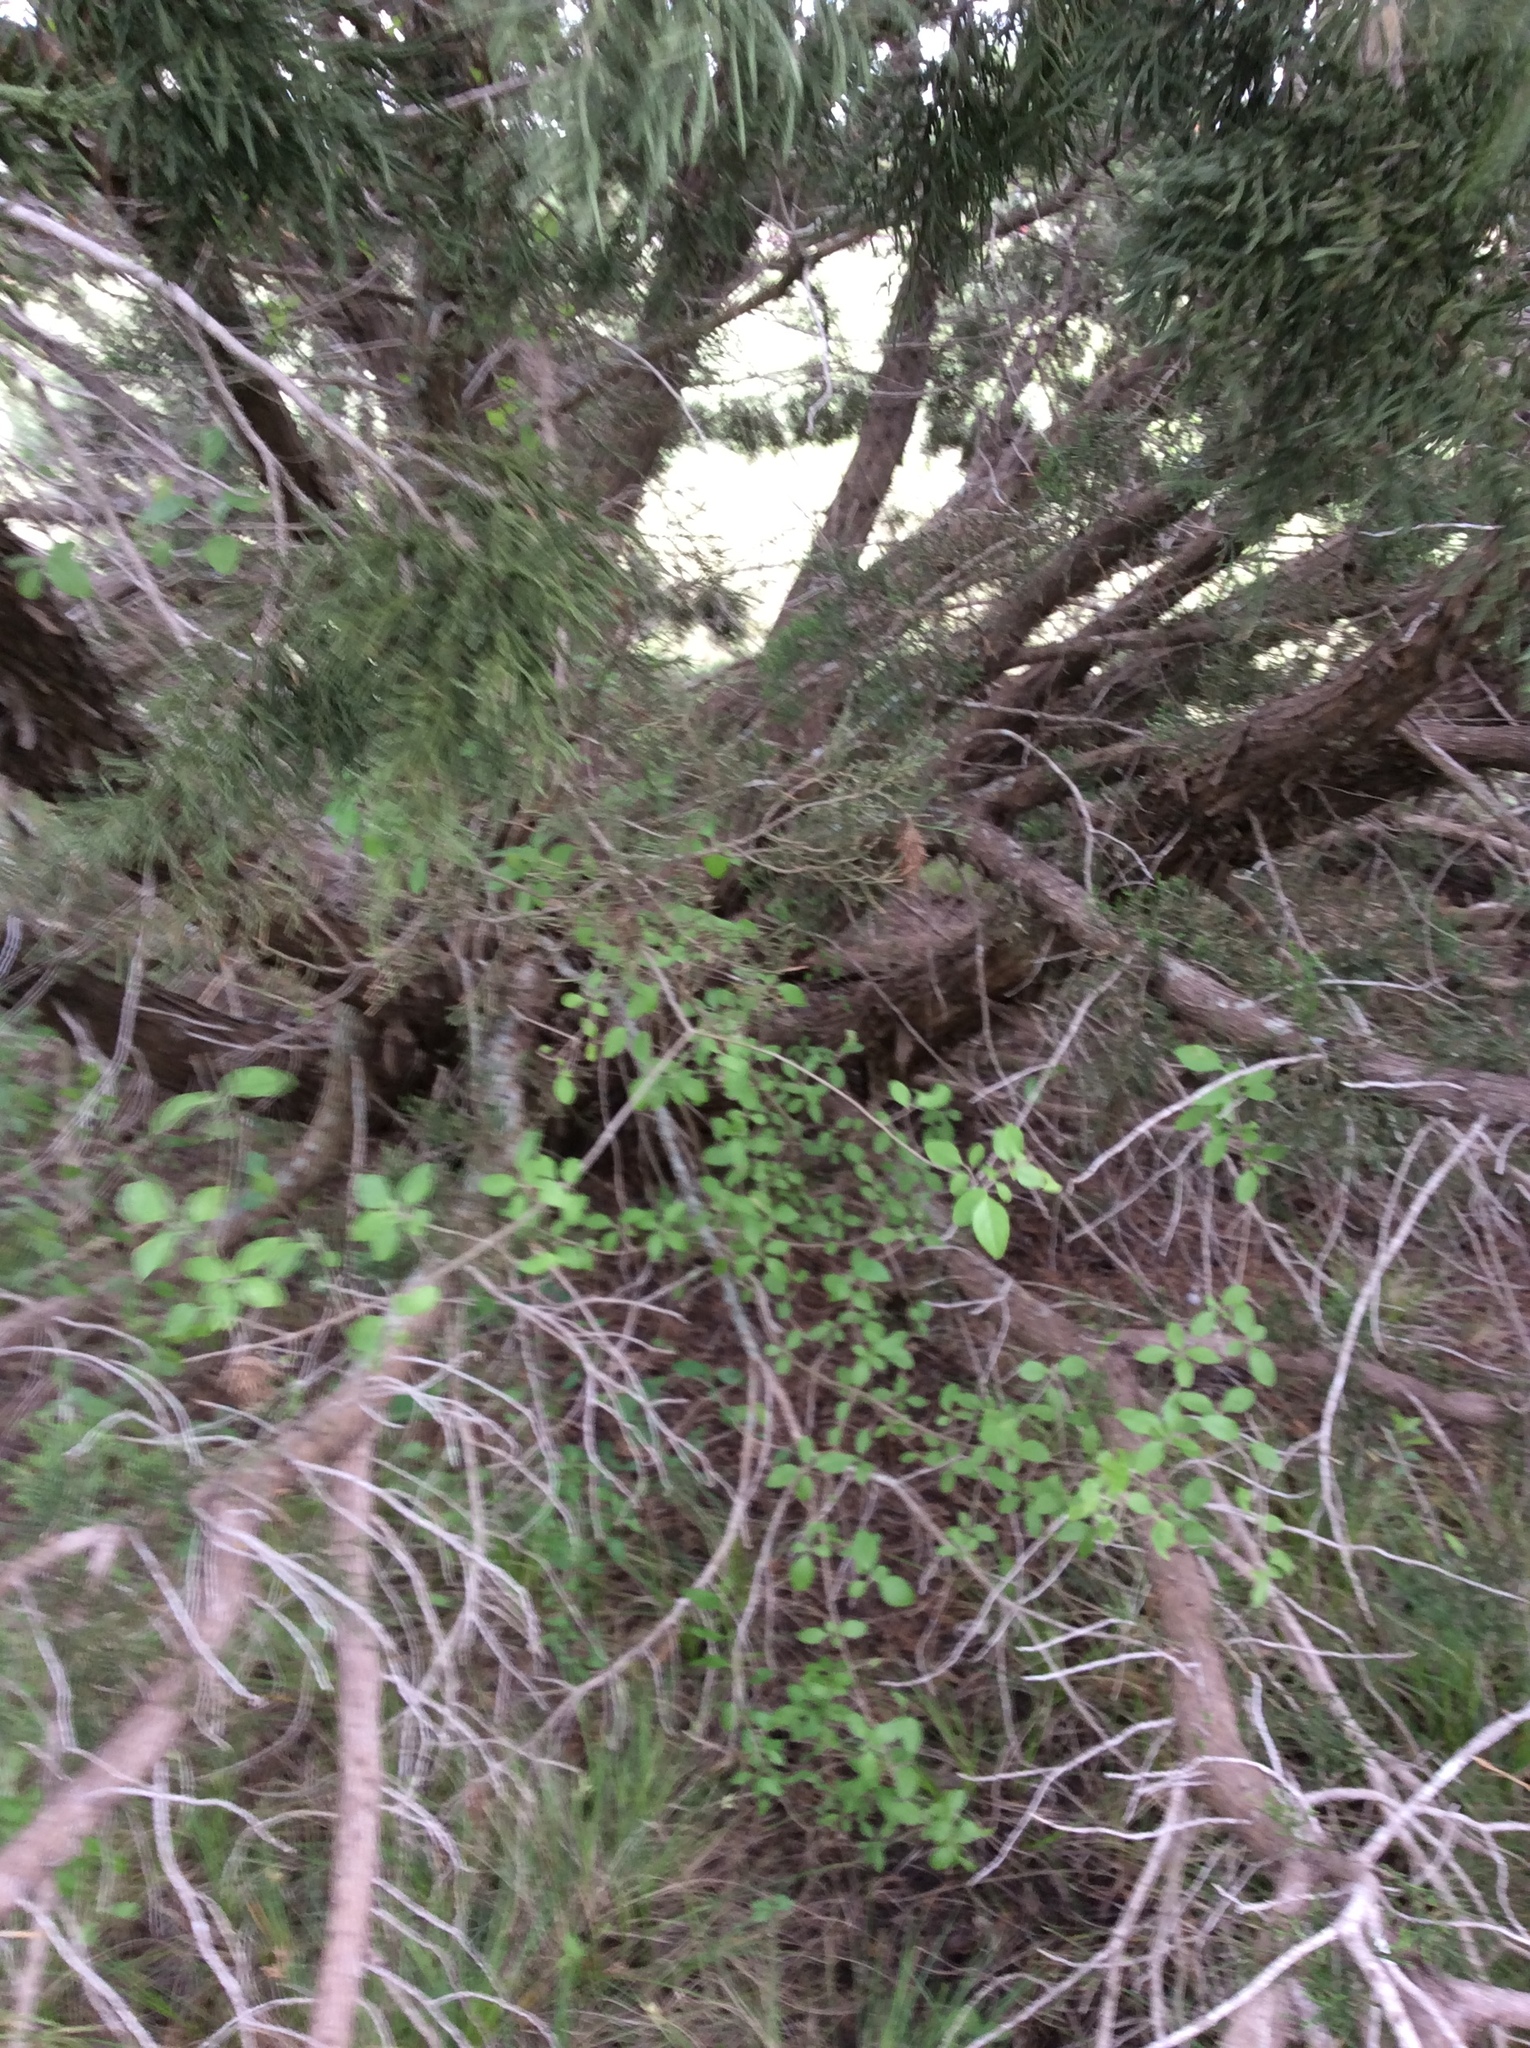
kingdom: Plantae
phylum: Tracheophyta
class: Pinopsida
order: Pinales
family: Cupressaceae
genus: Juniperus
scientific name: Juniperus ashei
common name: Mexican juniper
